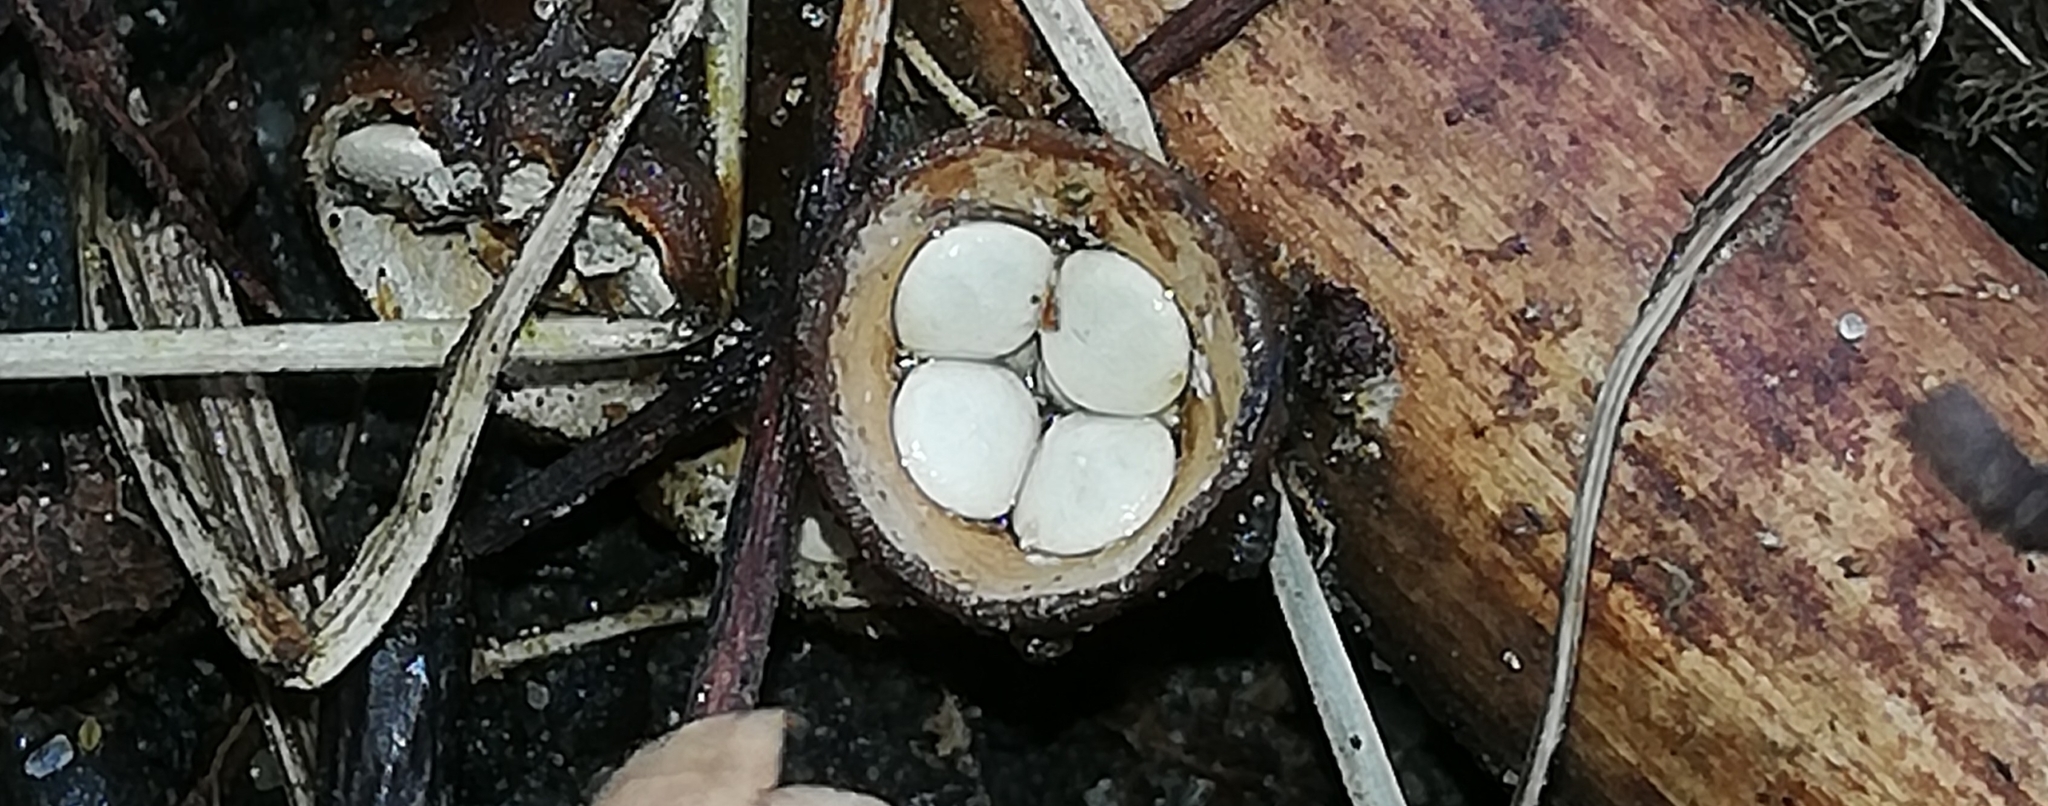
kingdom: Fungi
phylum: Basidiomycota
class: Agaricomycetes
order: Agaricales
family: Nidulariaceae
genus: Crucibulum
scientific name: Crucibulum laeve
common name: Common bird's nest
